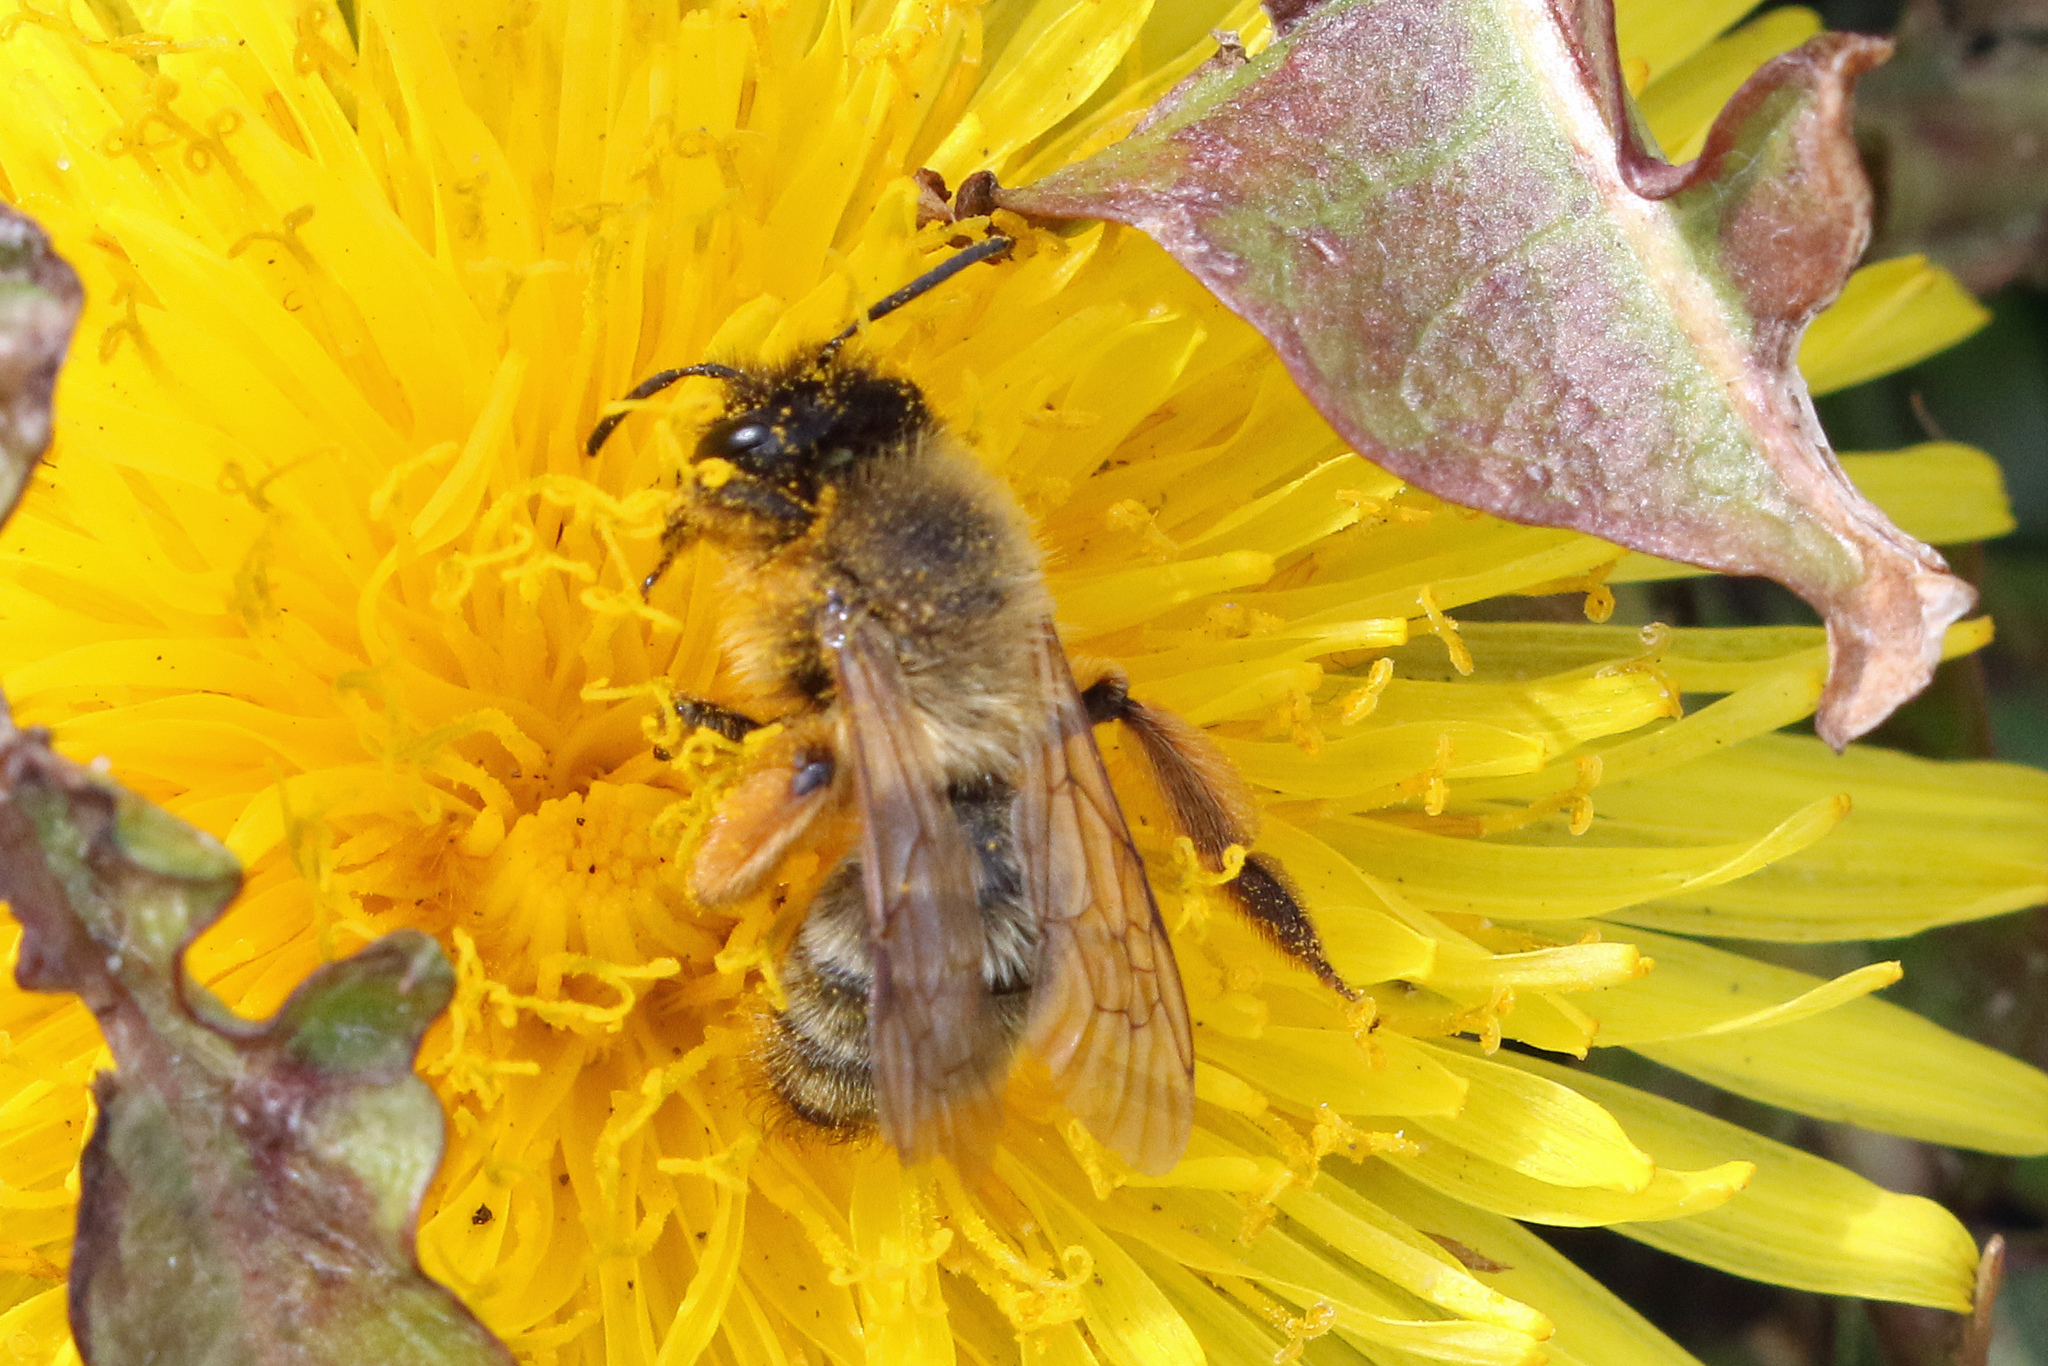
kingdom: Animalia
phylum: Arthropoda
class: Insecta
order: Hymenoptera
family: Andrenidae
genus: Andrena
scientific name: Andrena nigroaenea
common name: Buffish mining bee
